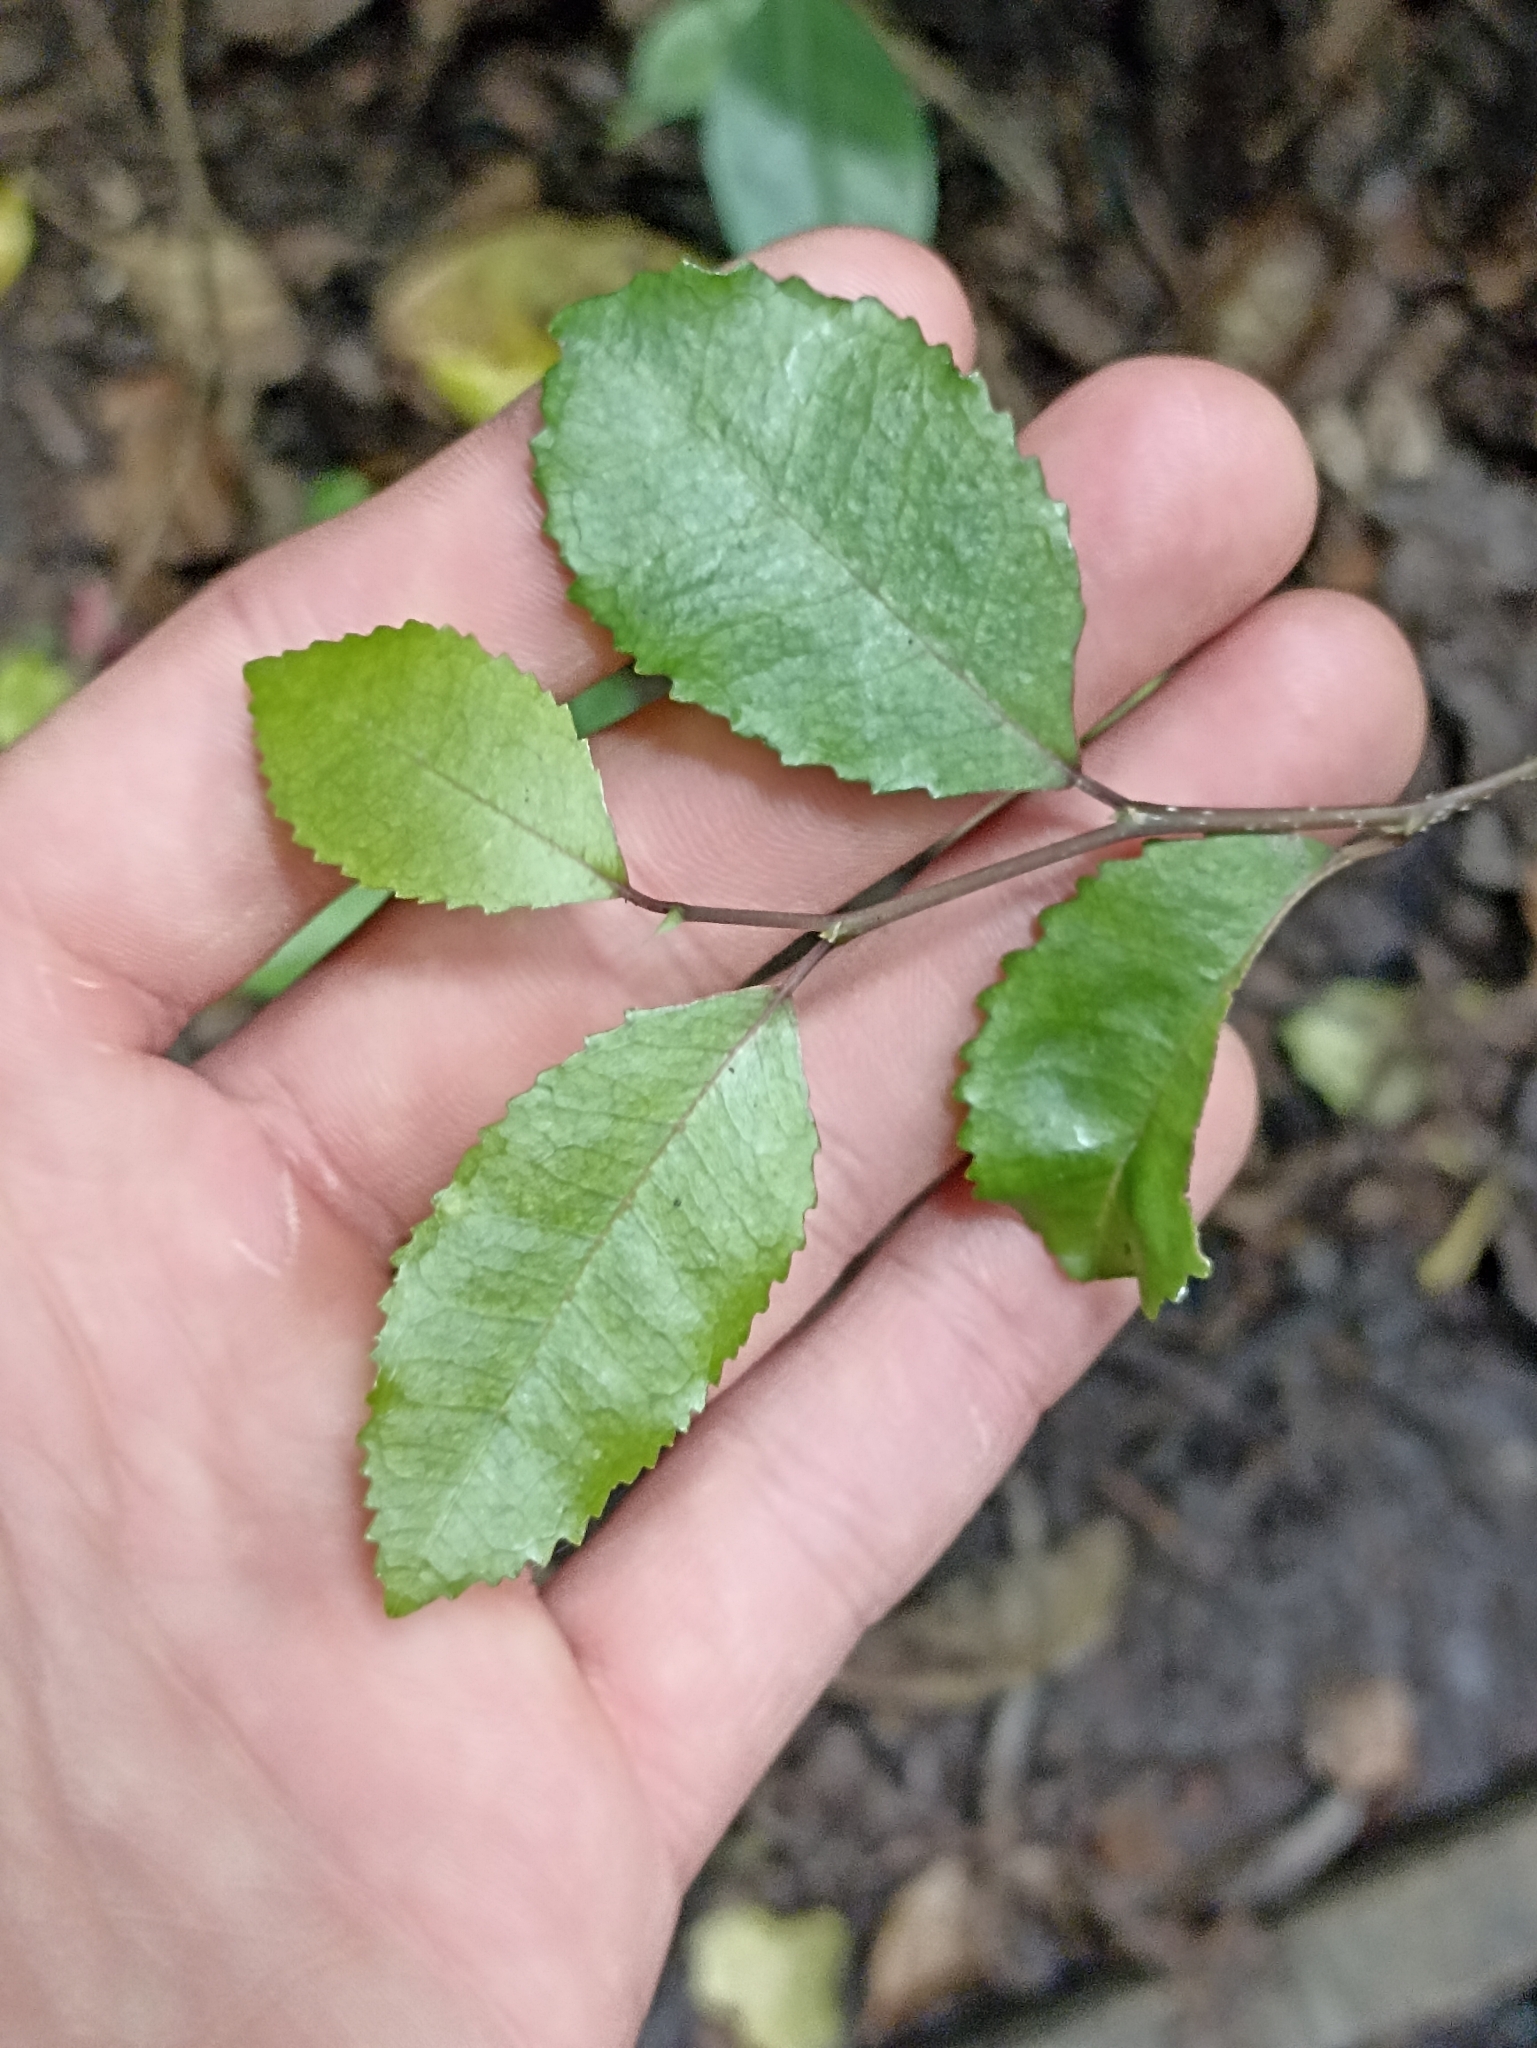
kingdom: Plantae
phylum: Tracheophyta
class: Magnoliopsida
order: Rosales
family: Moraceae
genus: Paratrophis
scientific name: Paratrophis banksii
